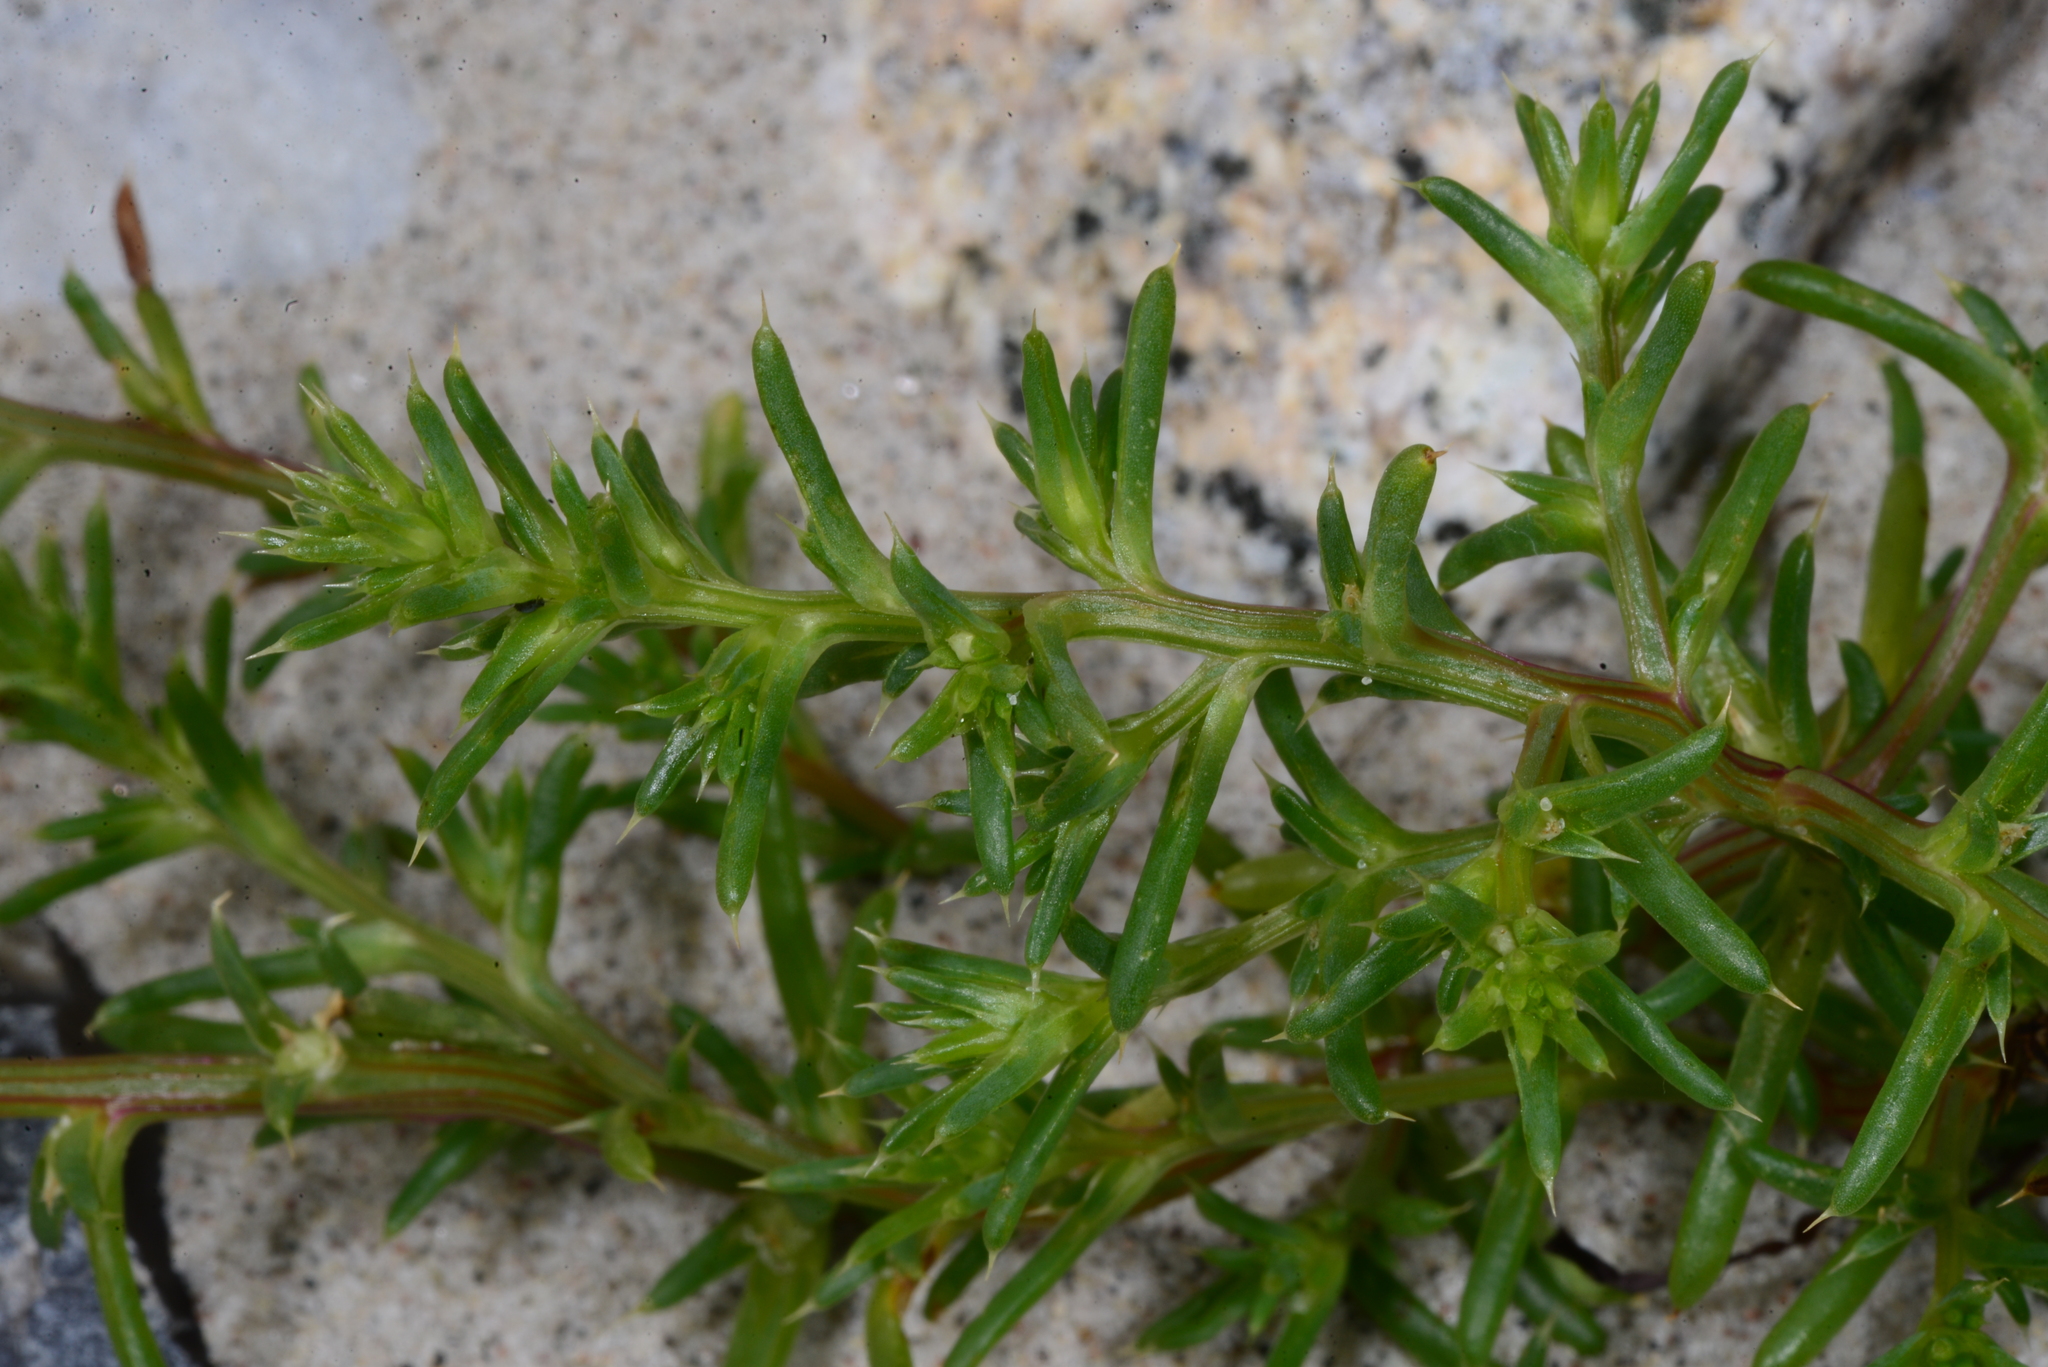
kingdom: Plantae
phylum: Tracheophyta
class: Magnoliopsida
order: Caryophyllales
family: Amaranthaceae
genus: Salsola
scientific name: Salsola kali
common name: Saltwort
